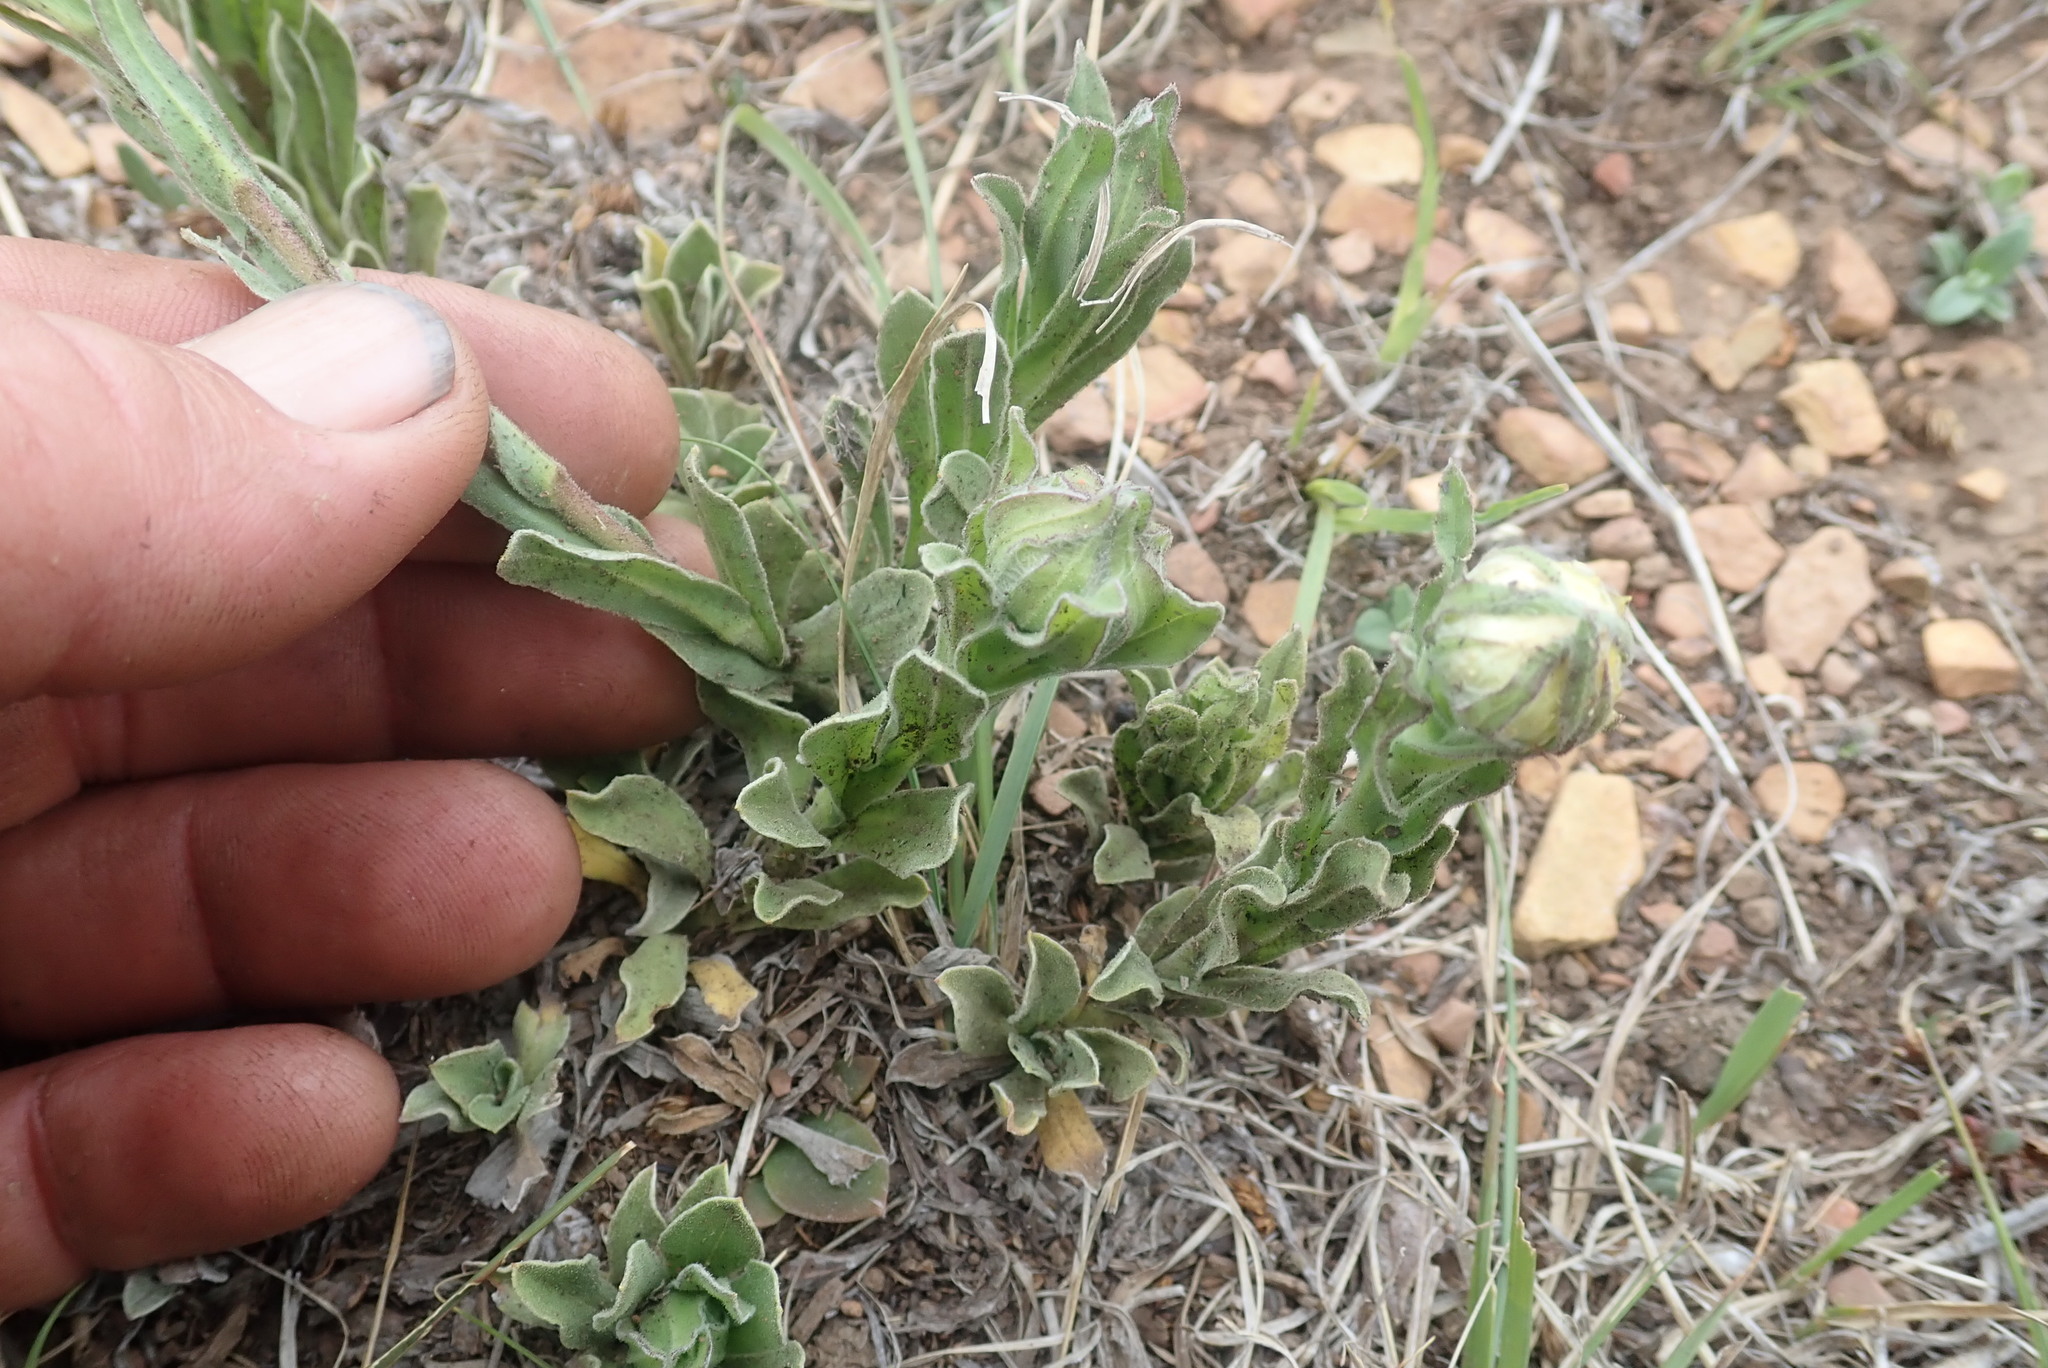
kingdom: Plantae
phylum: Tracheophyta
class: Magnoliopsida
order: Asterales
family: Asteraceae
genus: Helichrysum
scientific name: Helichrysum aureum
